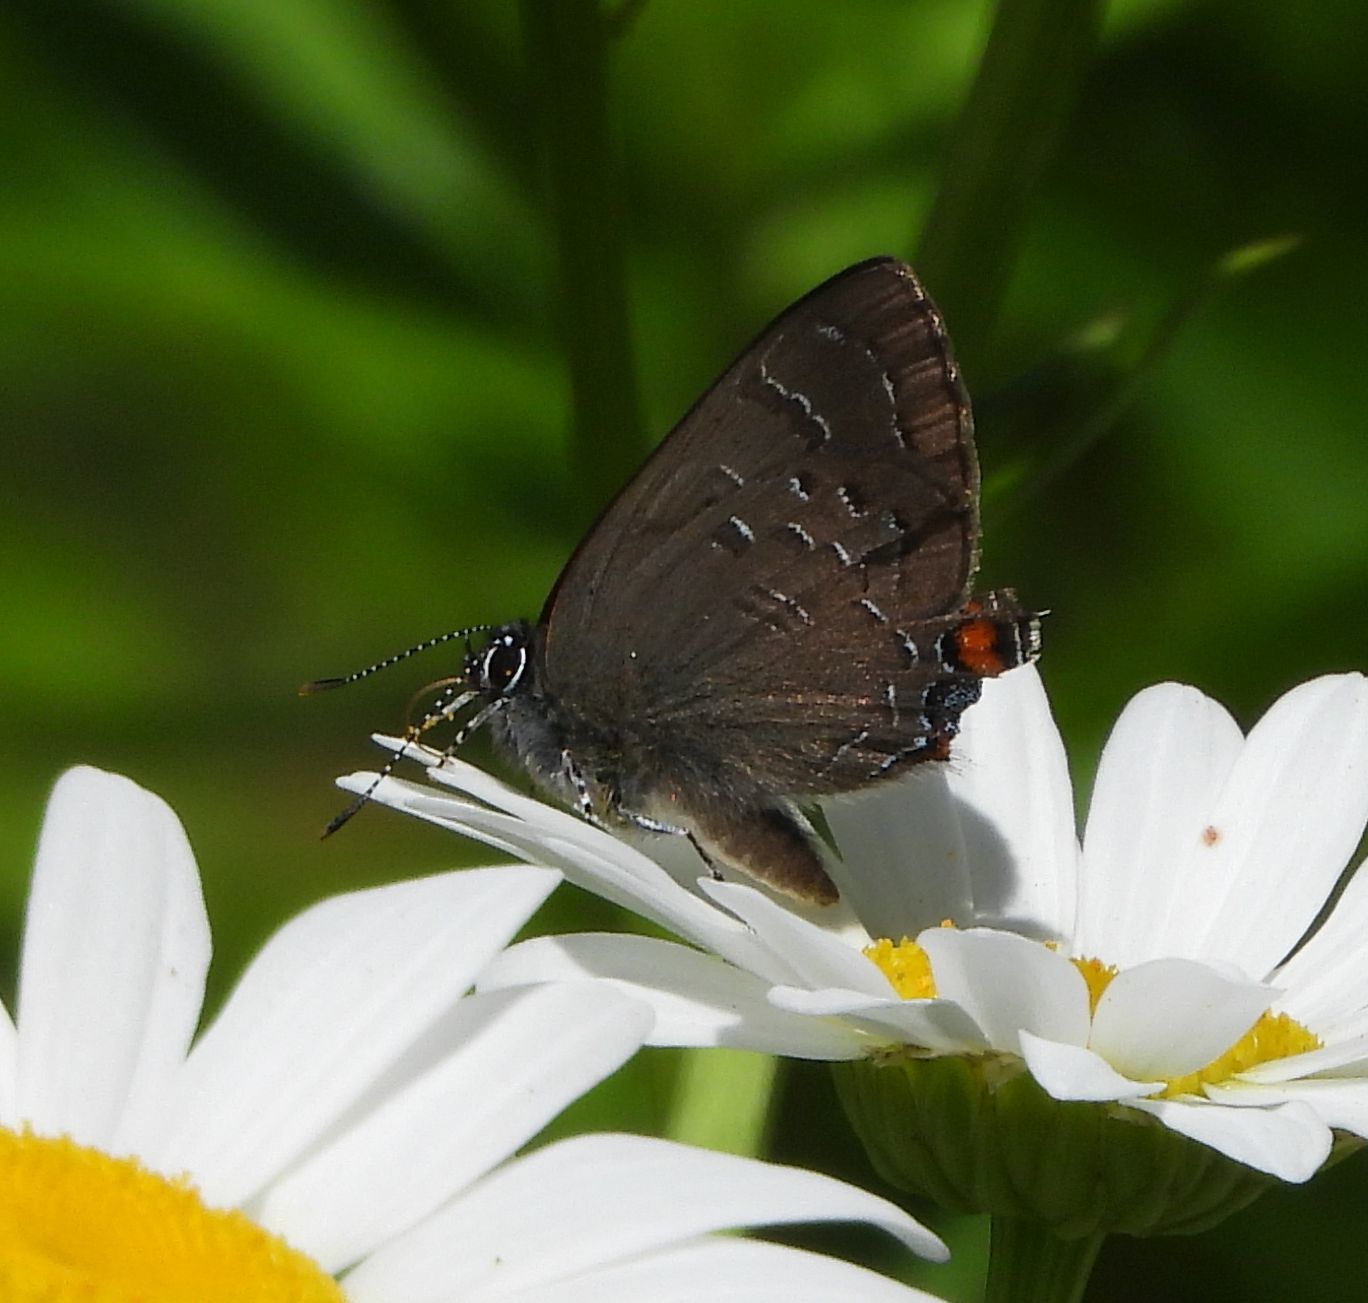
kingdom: Animalia
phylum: Arthropoda
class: Insecta
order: Lepidoptera
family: Lycaenidae
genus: Satyrium
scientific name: Satyrium calanus
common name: Banded hairstreak
